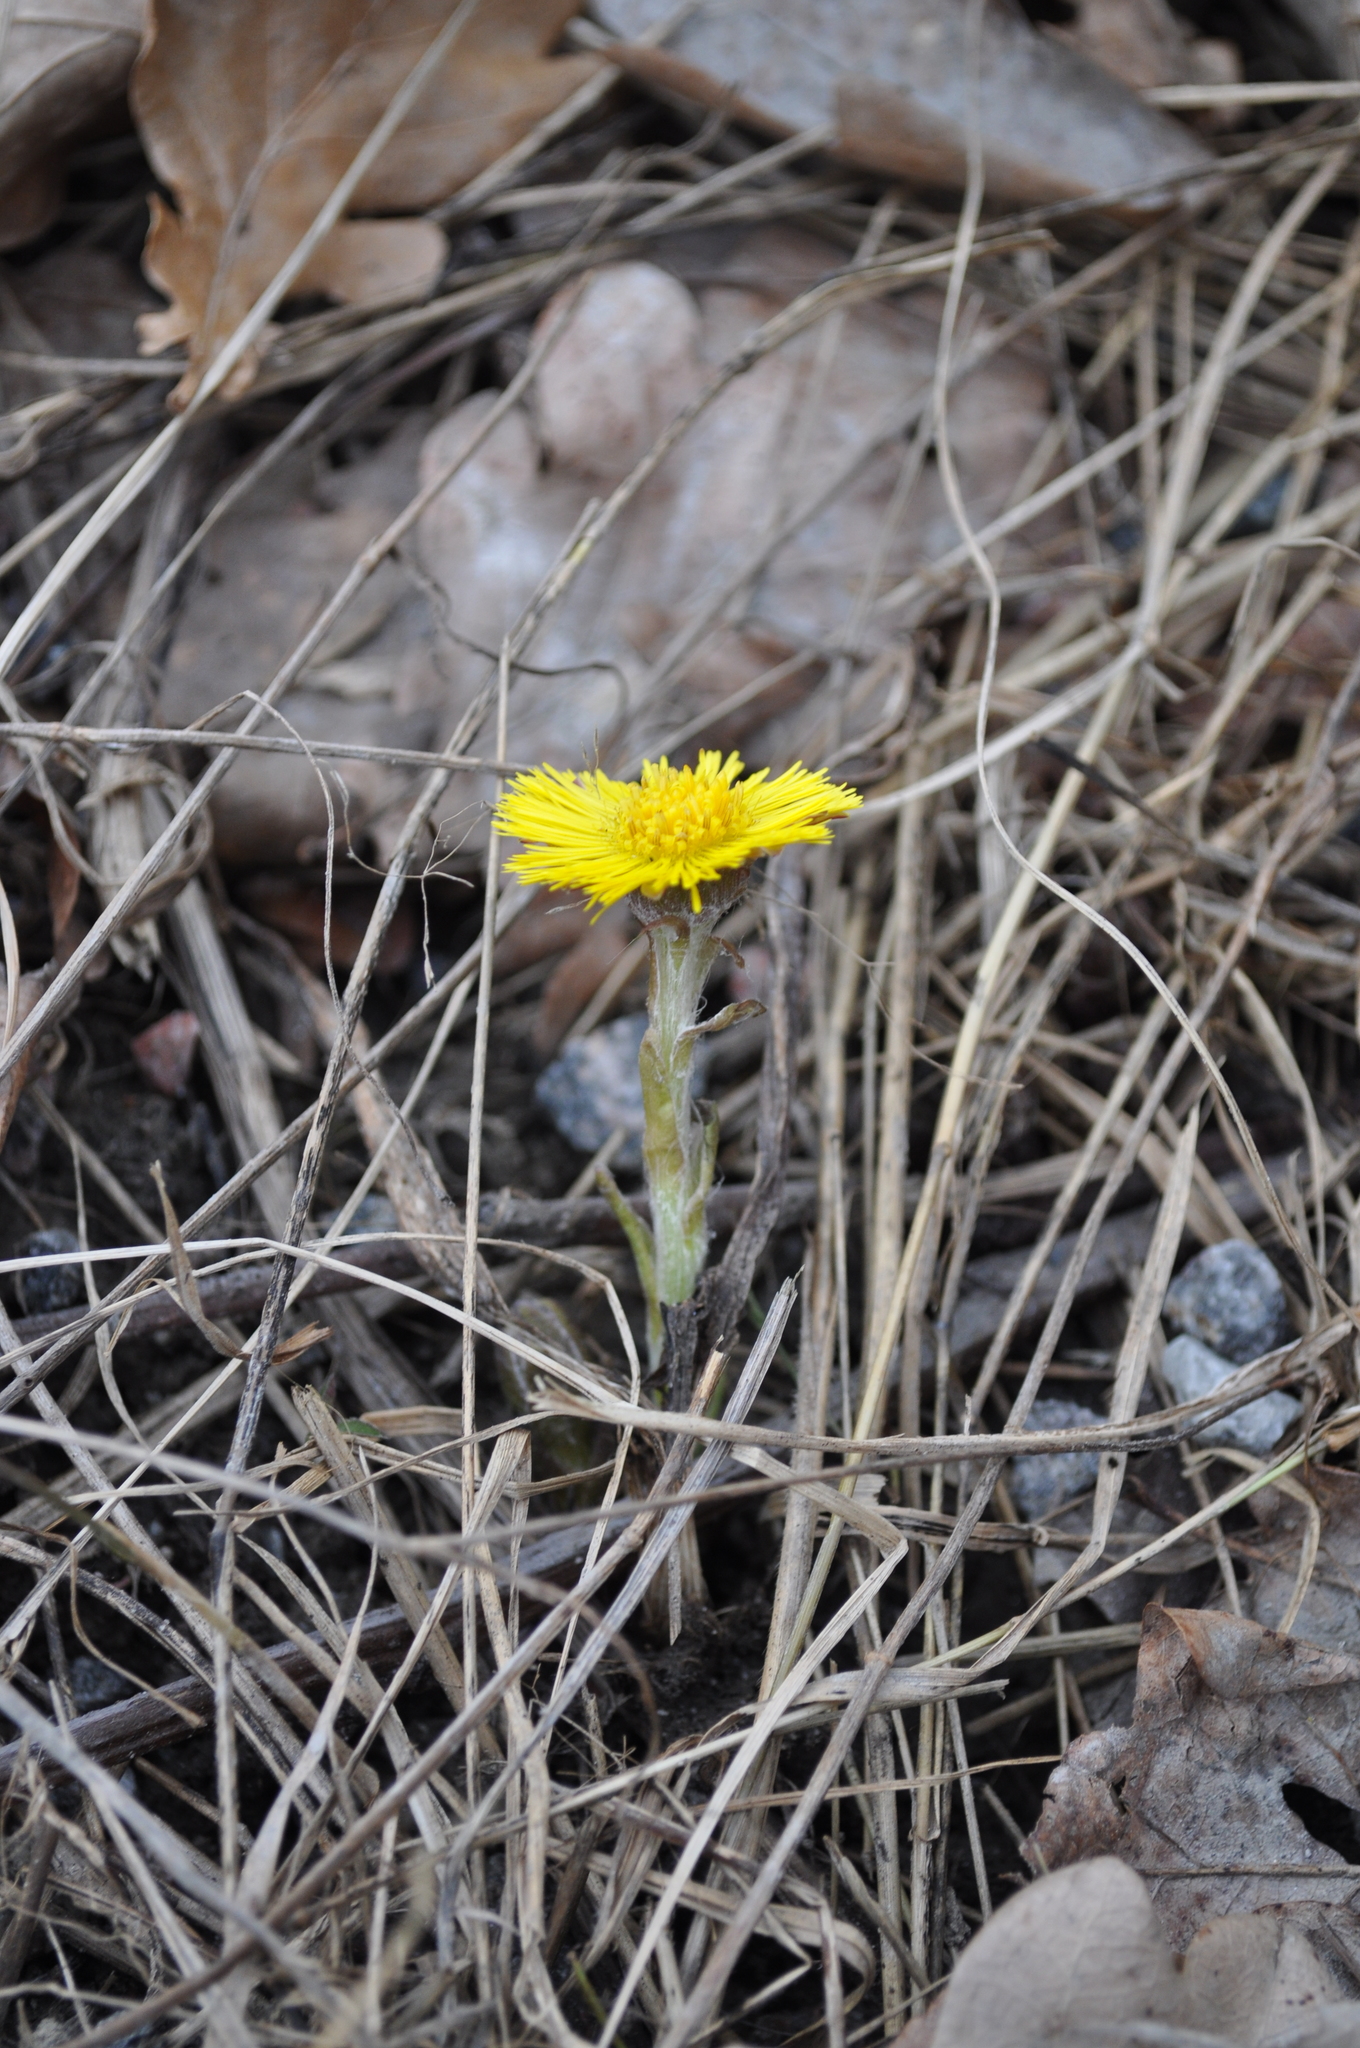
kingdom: Plantae
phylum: Tracheophyta
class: Magnoliopsida
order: Asterales
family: Asteraceae
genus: Tussilago
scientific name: Tussilago farfara
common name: Coltsfoot
